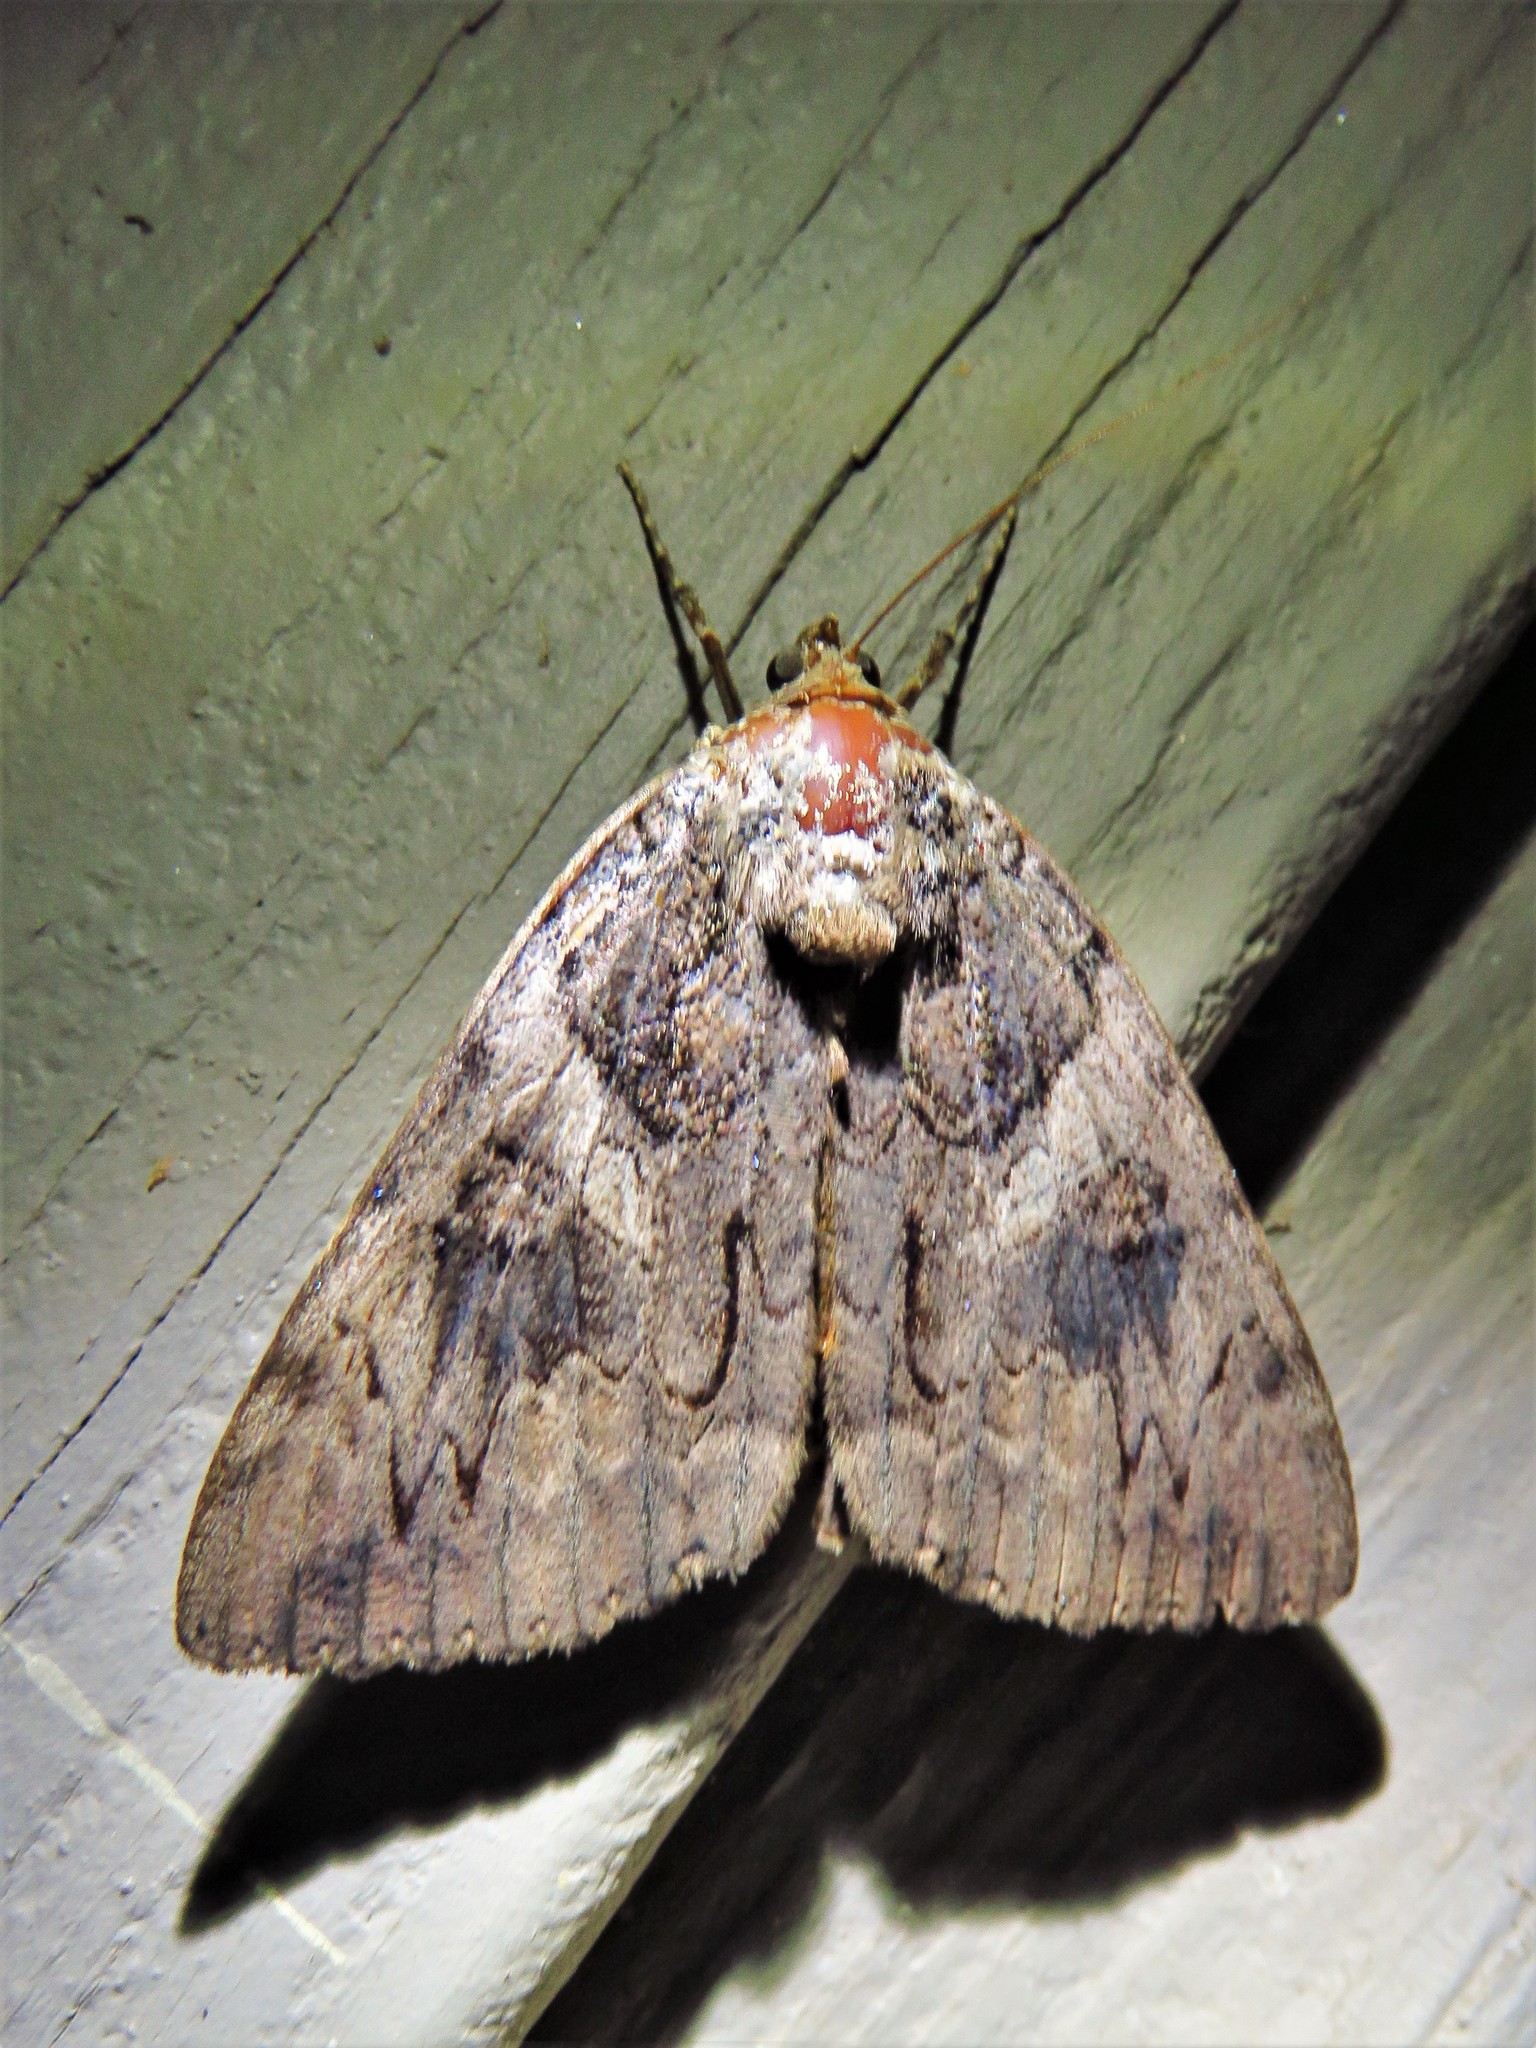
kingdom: Animalia
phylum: Arthropoda
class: Insecta
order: Lepidoptera
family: Erebidae
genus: Catocala
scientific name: Catocala piatrix
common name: The penitent underwing
